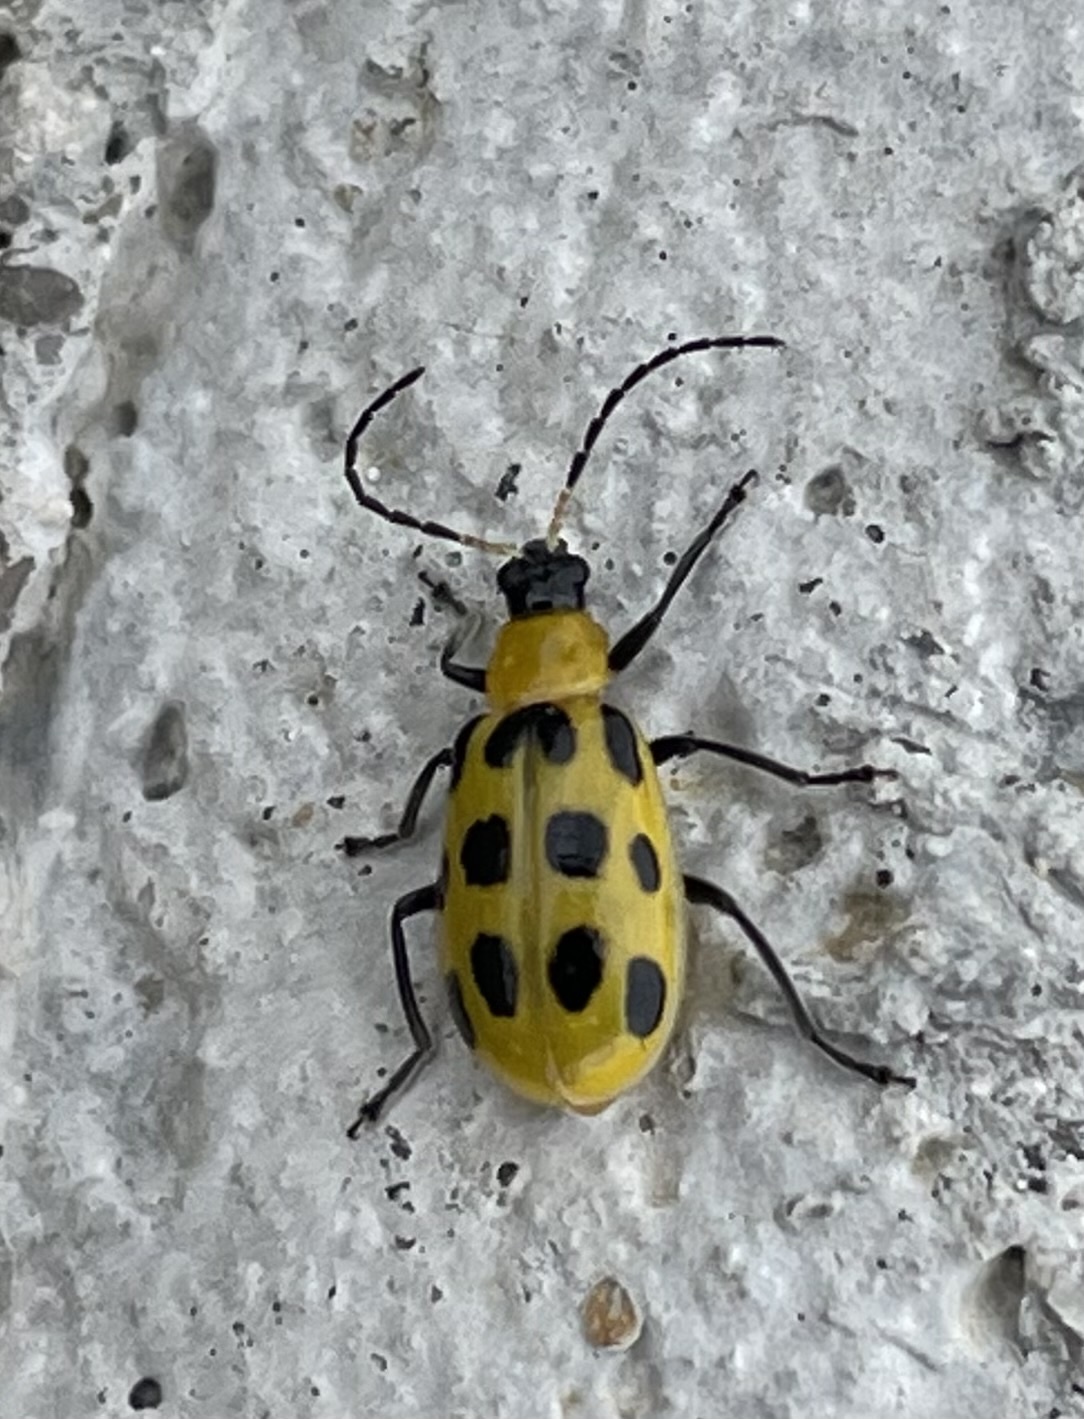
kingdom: Animalia
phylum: Arthropoda
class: Insecta
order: Coleoptera
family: Chrysomelidae
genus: Diabrotica
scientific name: Diabrotica undecimpunctata
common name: Spotted cucumber beetle
